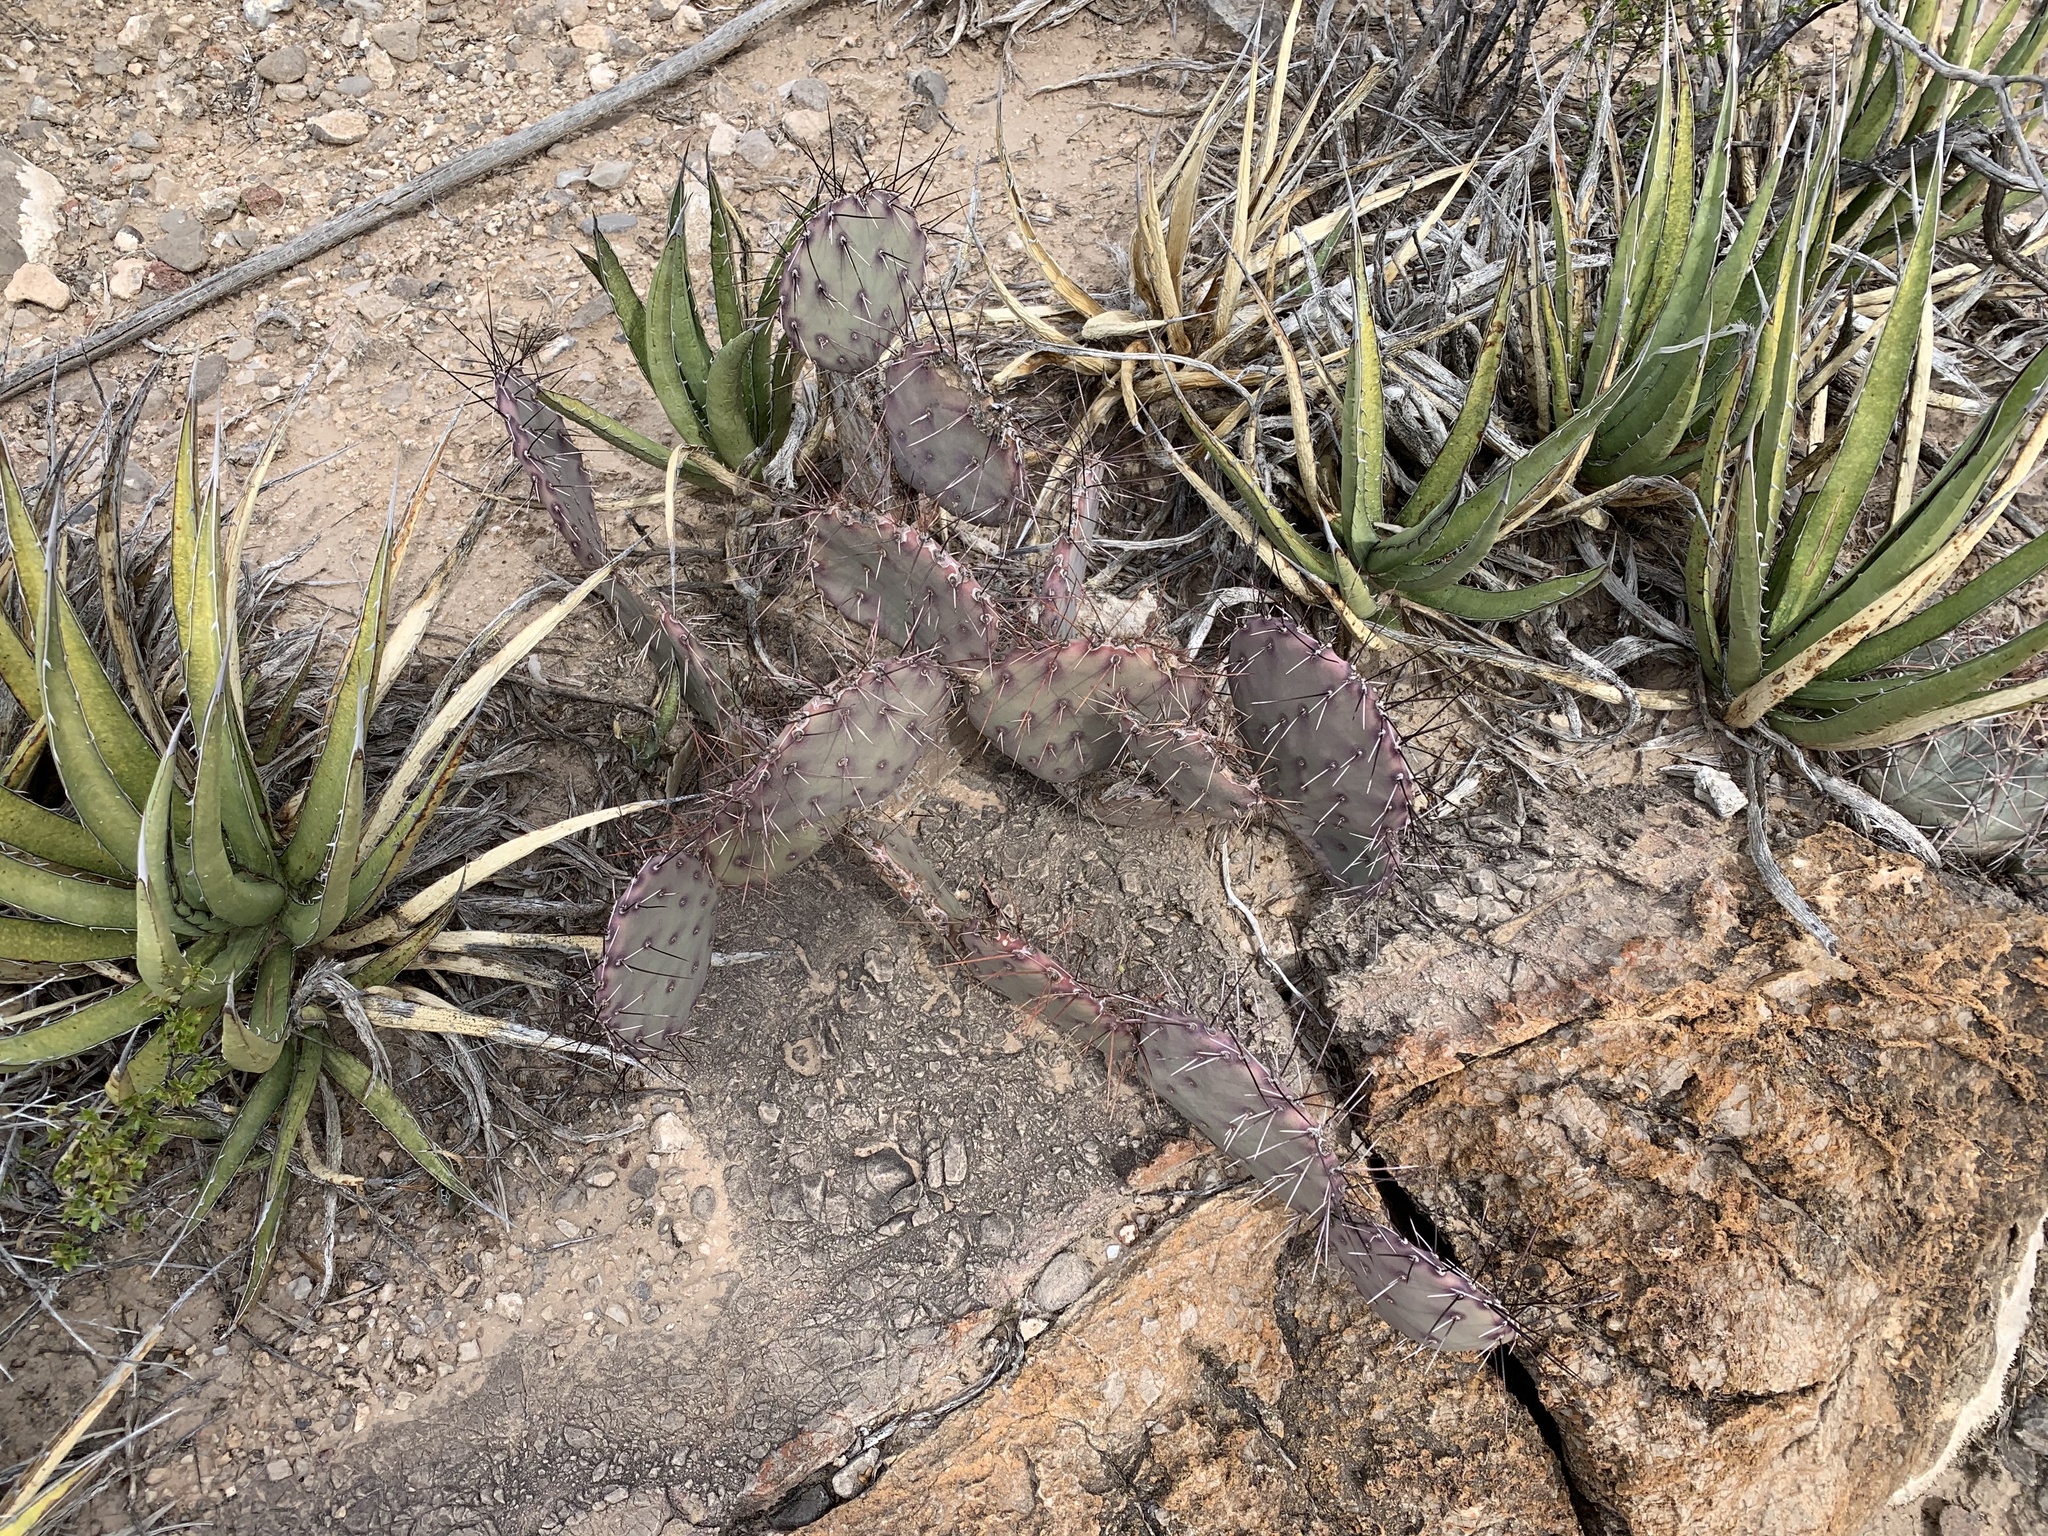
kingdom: Plantae
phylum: Tracheophyta
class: Magnoliopsida
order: Caryophyllales
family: Cactaceae
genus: Opuntia
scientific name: Opuntia phaeacantha
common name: New mexico prickly-pear
